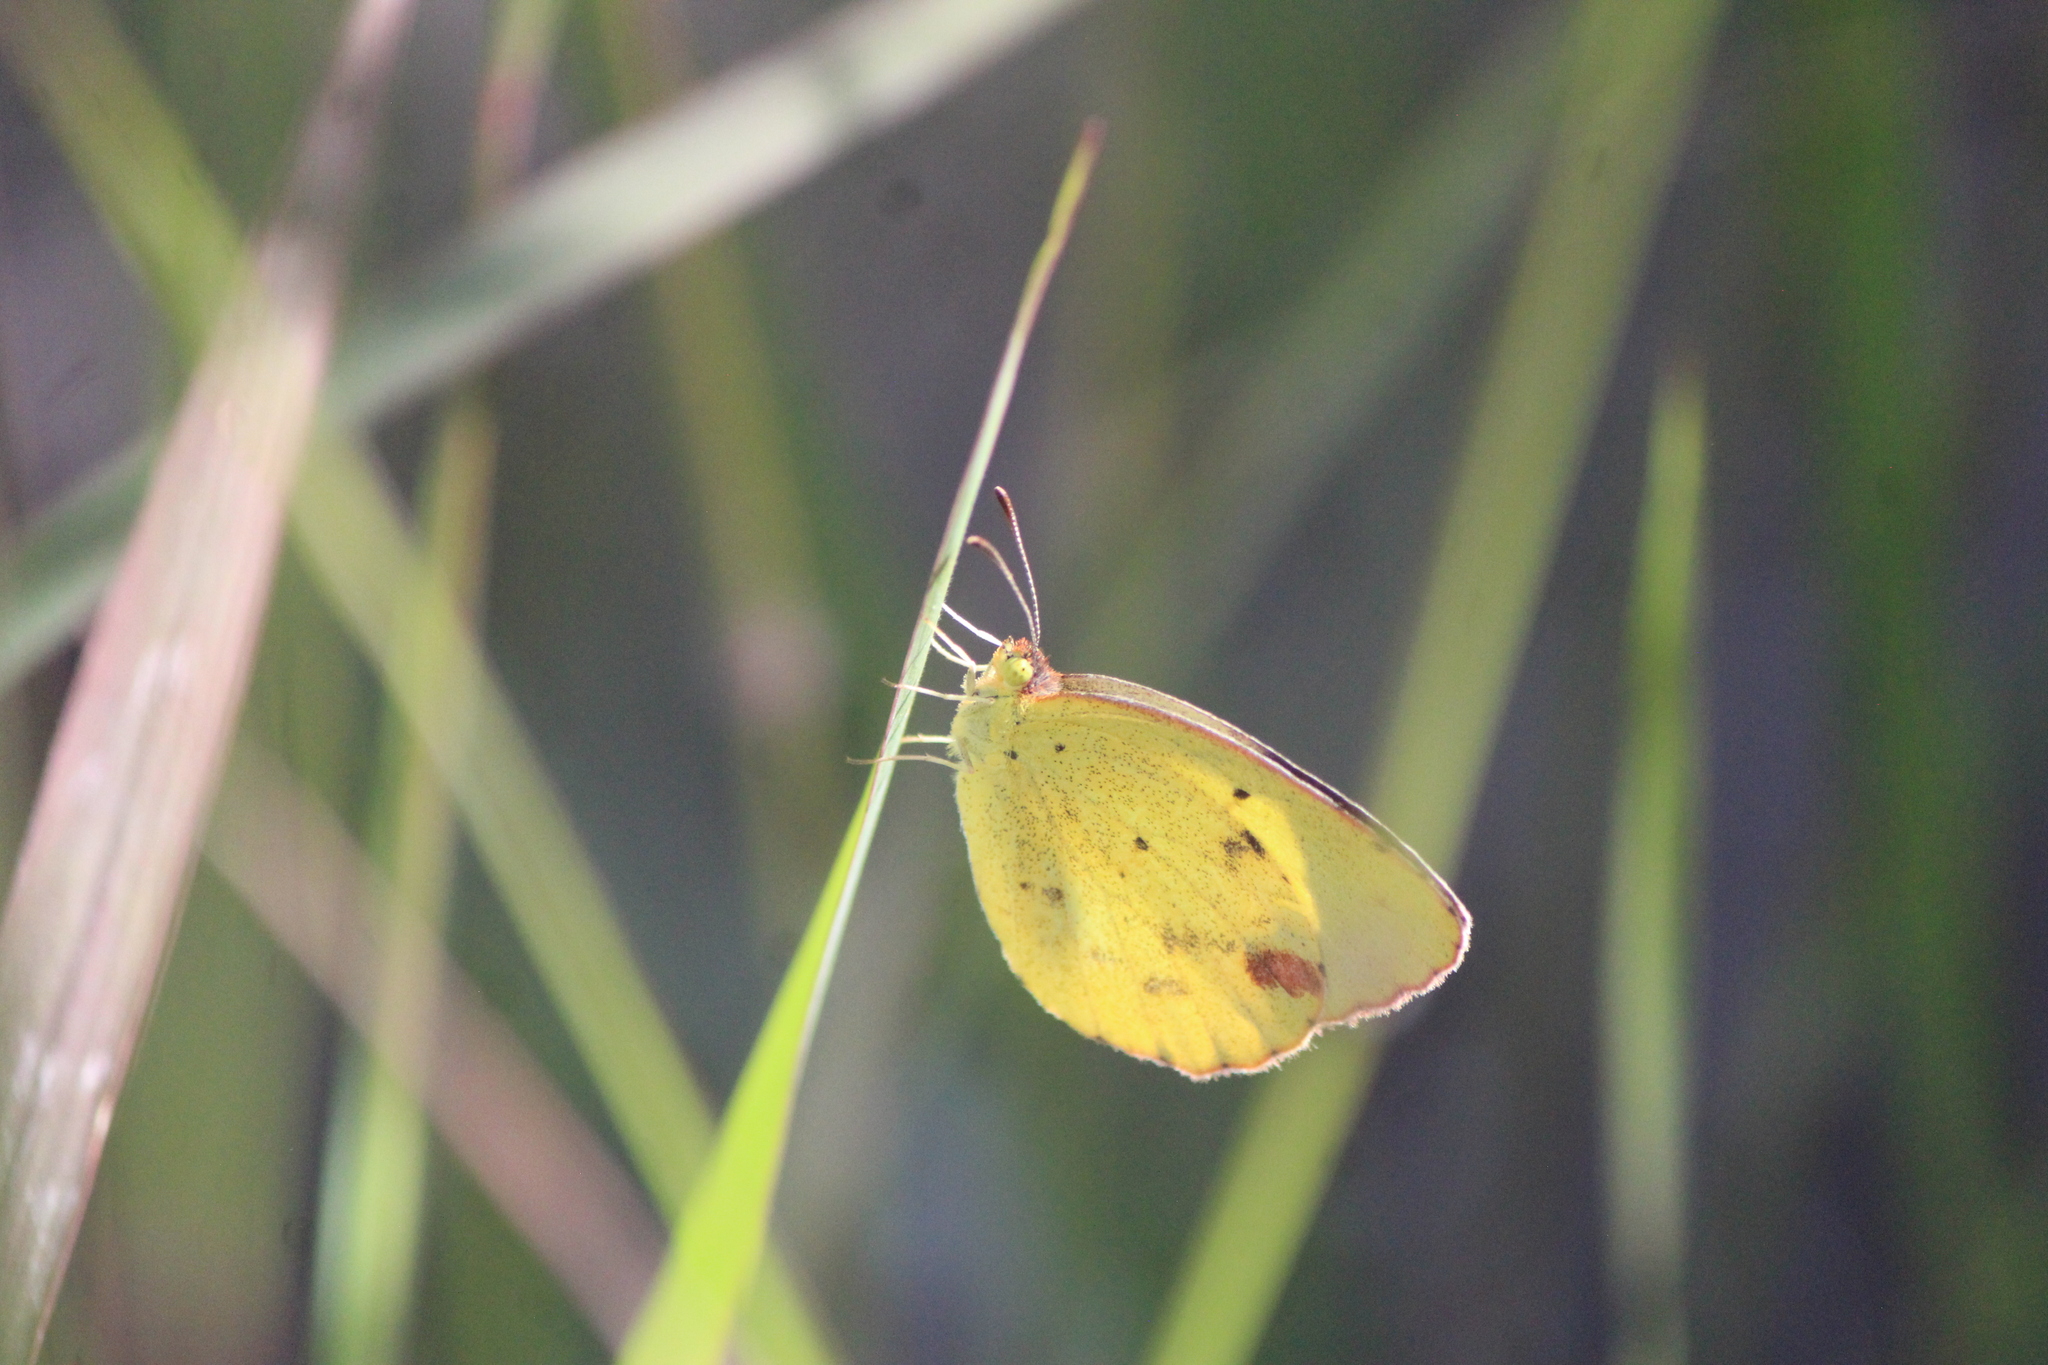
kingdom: Animalia
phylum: Arthropoda
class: Insecta
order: Lepidoptera
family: Pieridae
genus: Pyrisitia
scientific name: Pyrisitia lisa
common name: Little yellow
